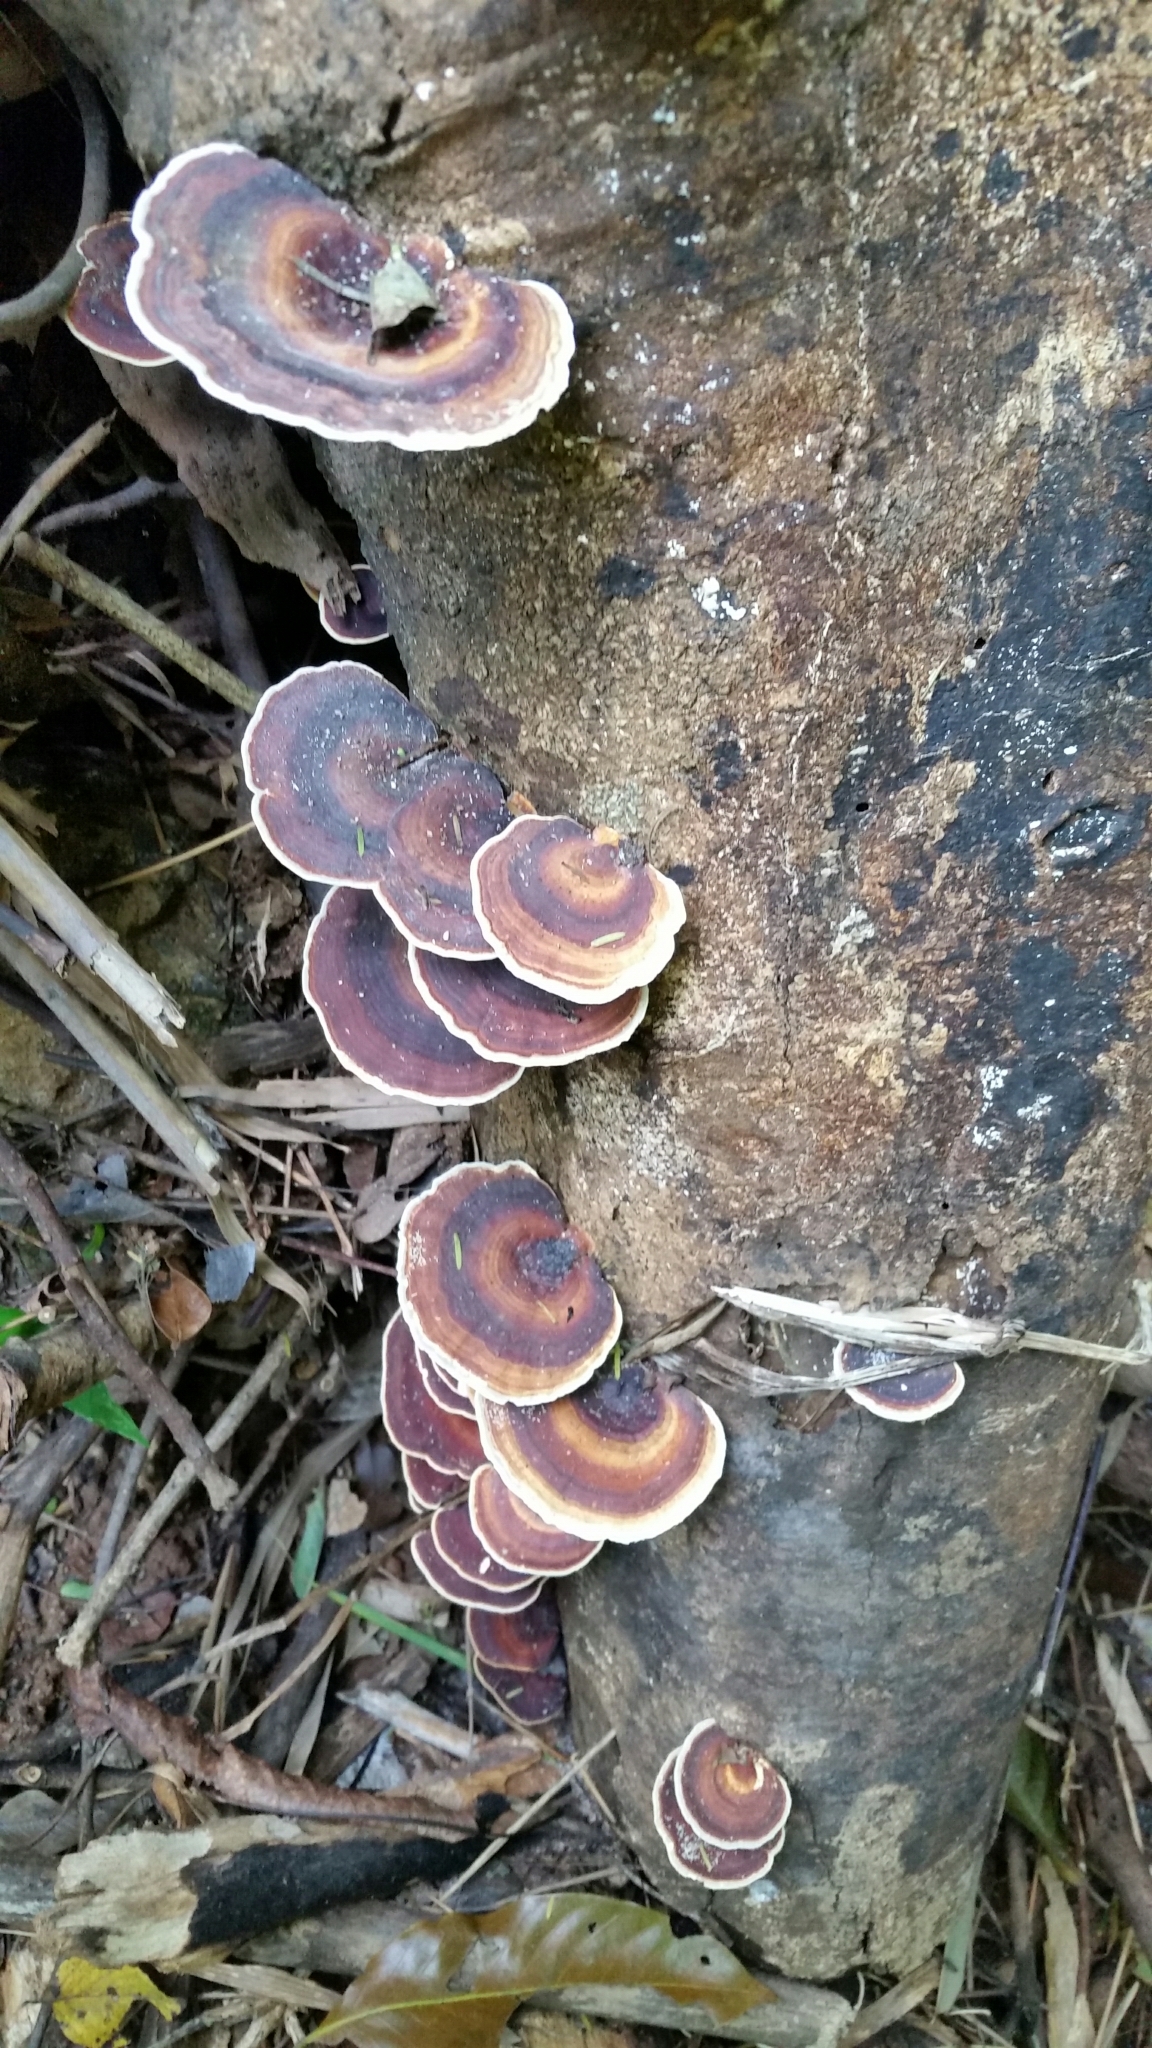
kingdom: Fungi
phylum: Basidiomycota
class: Agaricomycetes
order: Polyporales
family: Polyporaceae
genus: Microporus
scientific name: Microporus affinis
